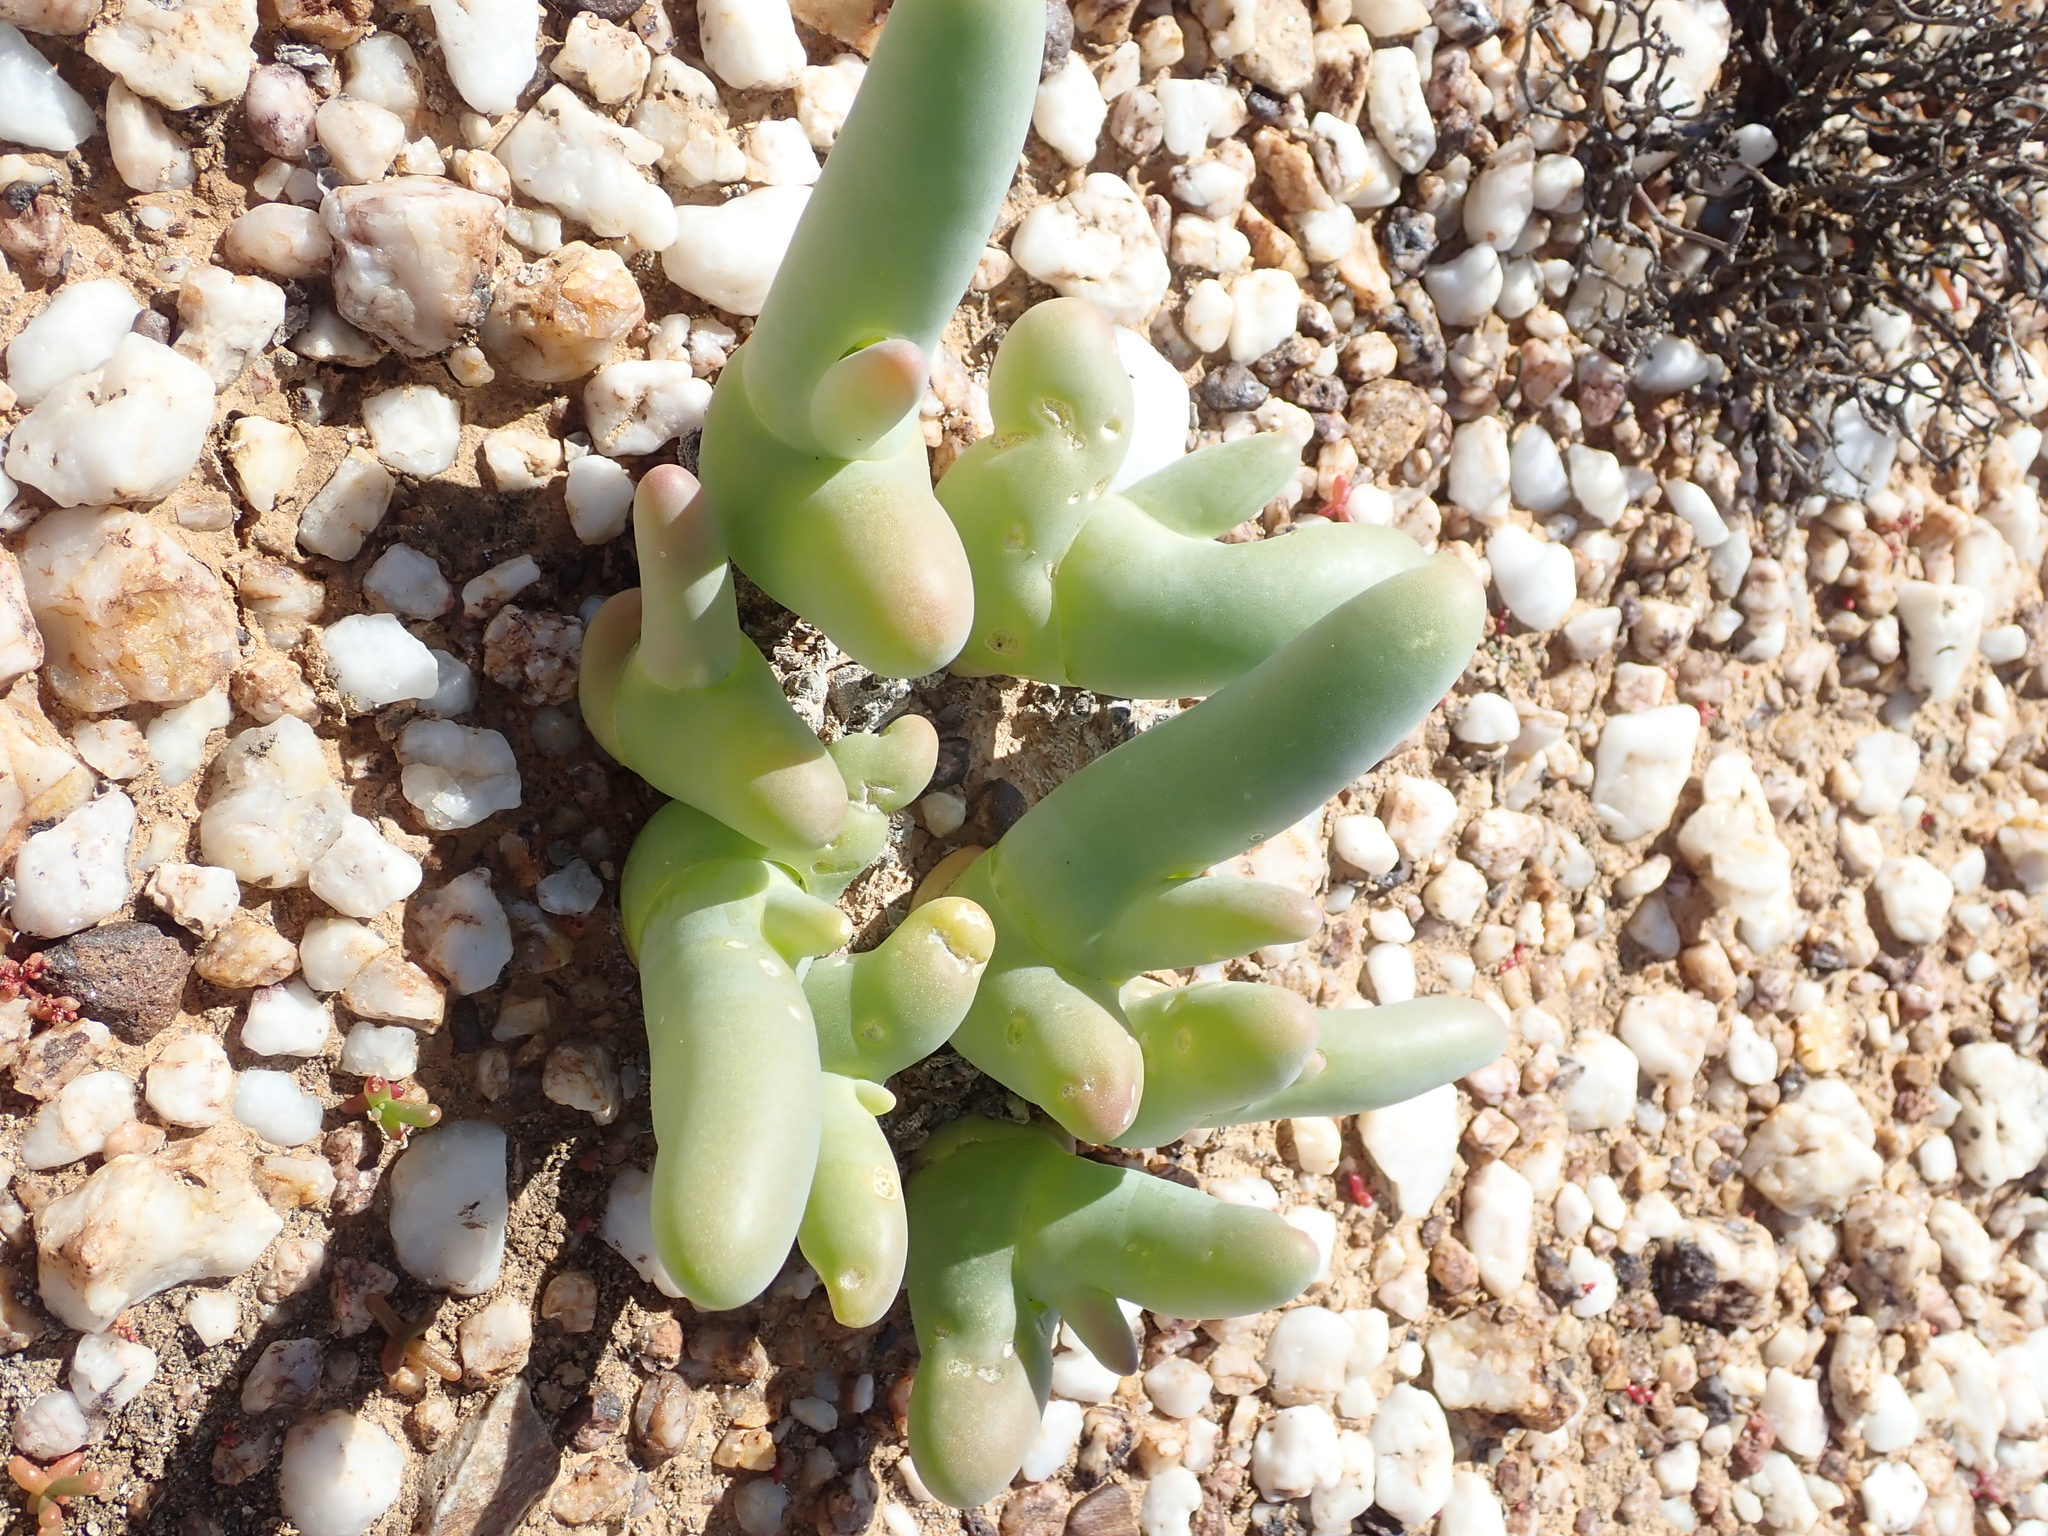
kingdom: Plantae
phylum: Tracheophyta
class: Magnoliopsida
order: Caryophyllales
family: Aizoaceae
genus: Mesembryanthemum
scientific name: Mesembryanthemum digitatum
